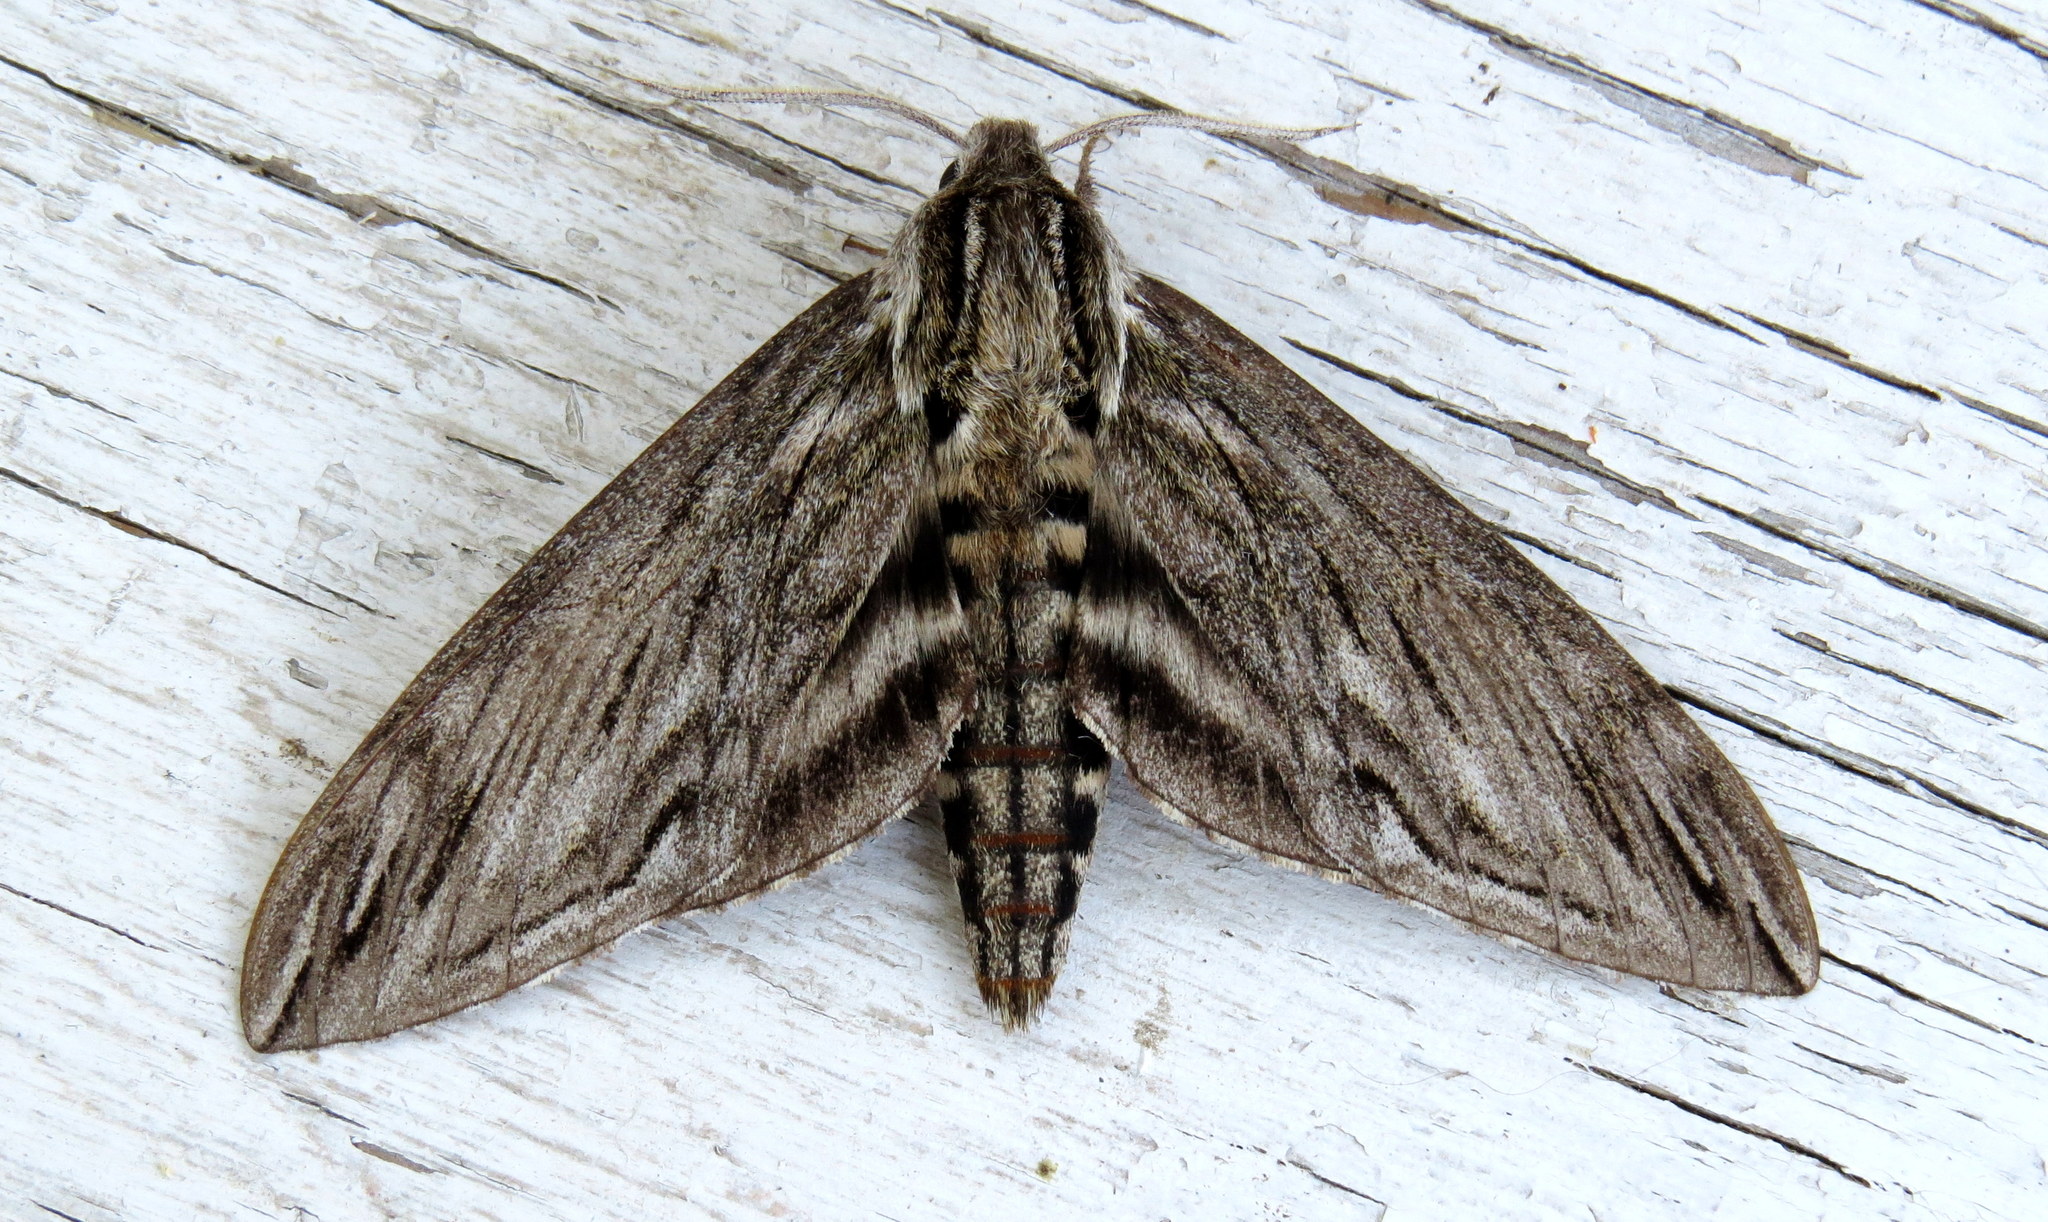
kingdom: Animalia
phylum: Arthropoda
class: Insecta
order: Lepidoptera
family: Sphingidae
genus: Sphinx
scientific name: Sphinx canadensis
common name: Canadian sphinx
